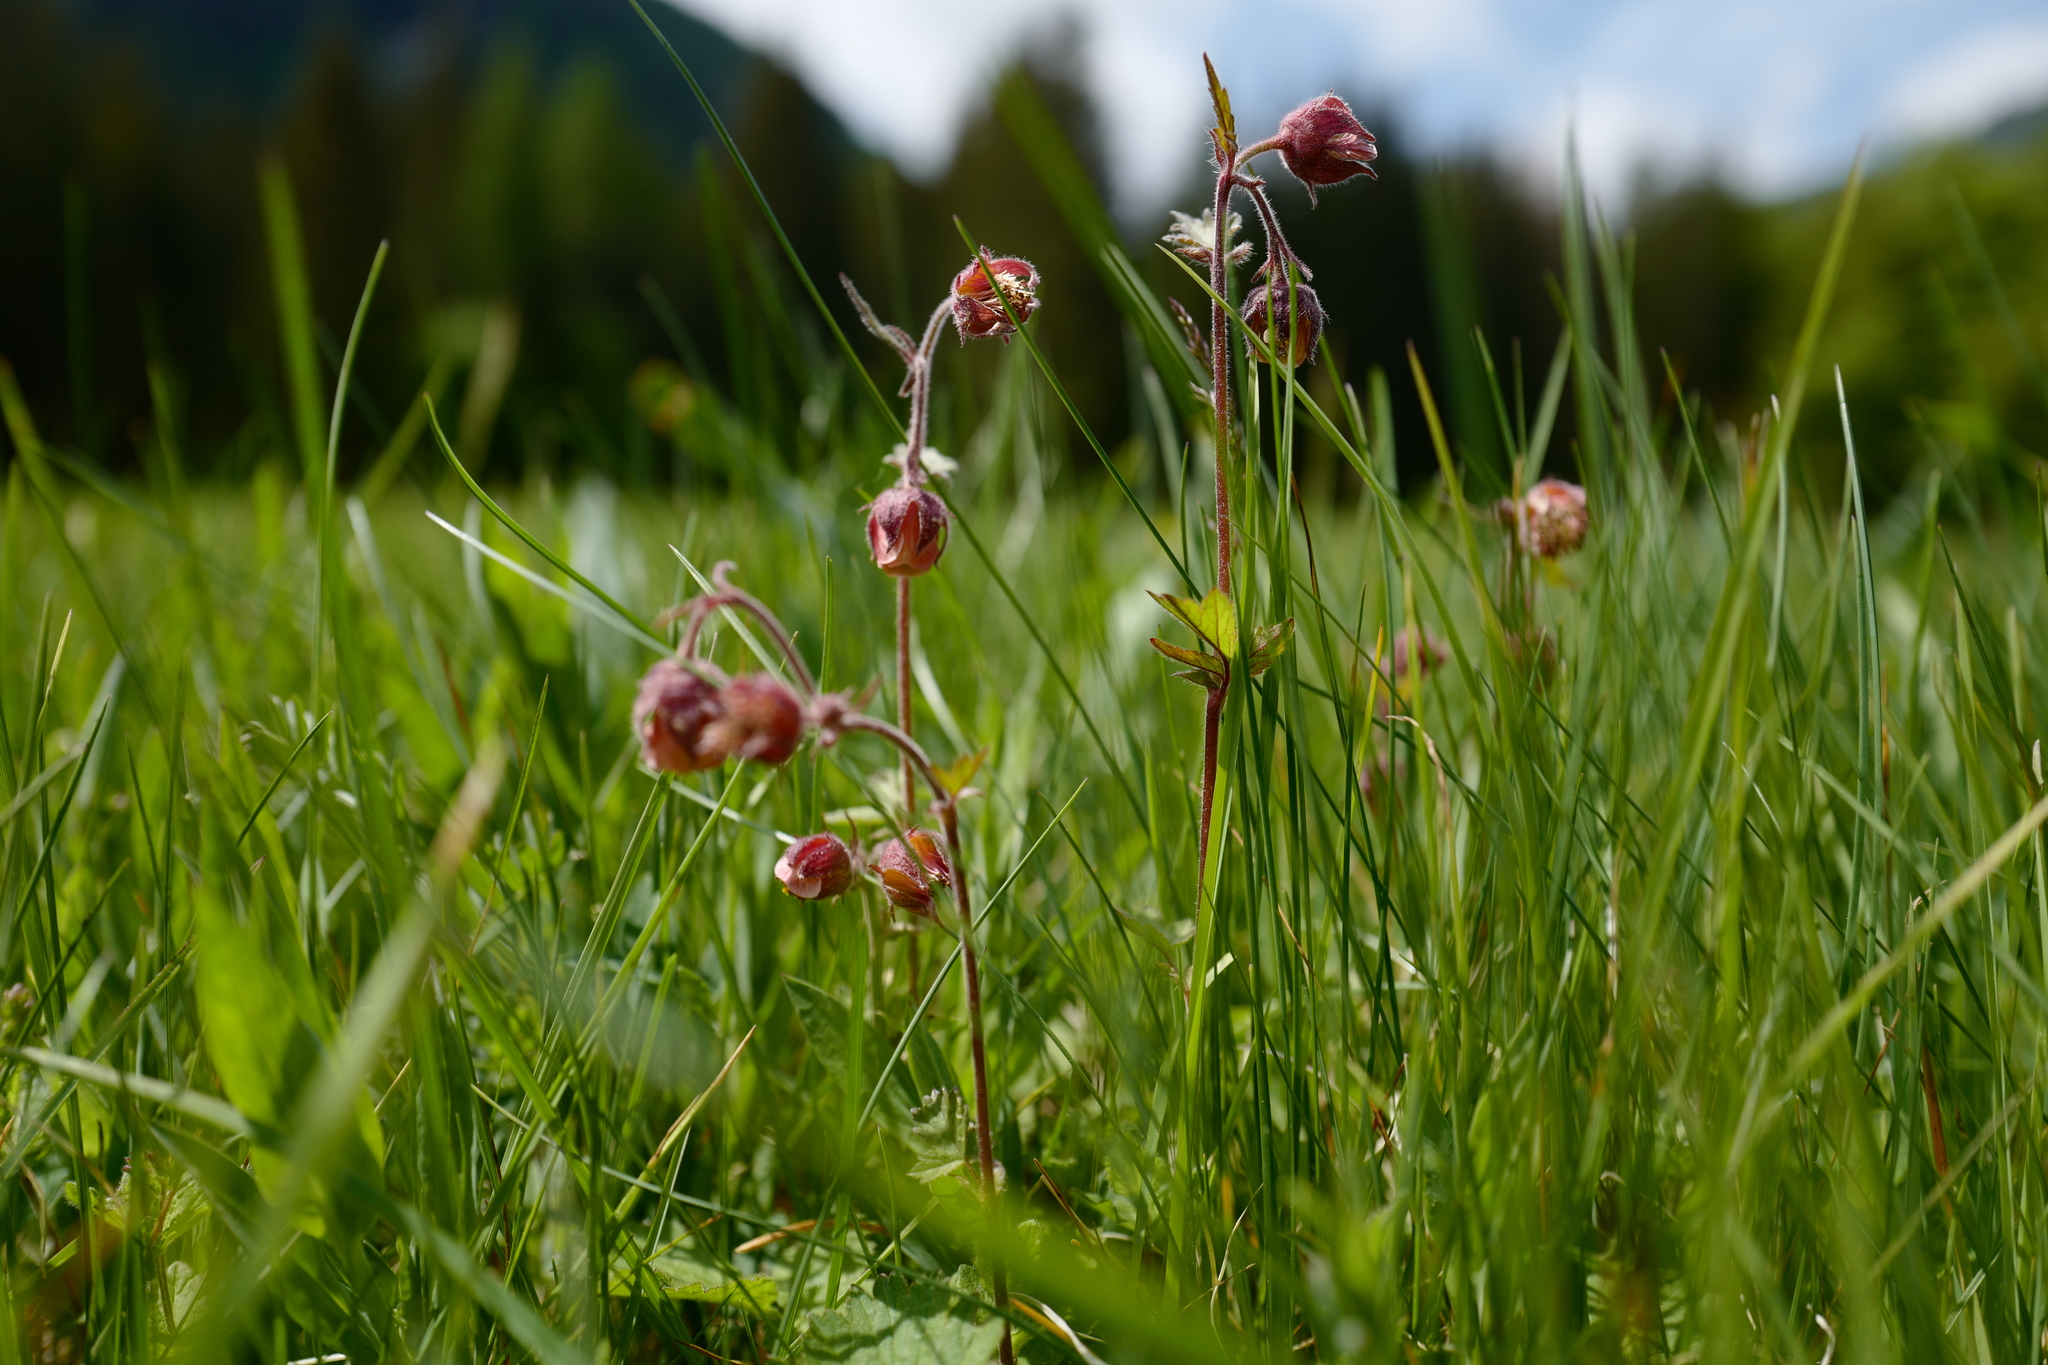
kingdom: Plantae
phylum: Tracheophyta
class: Magnoliopsida
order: Rosales
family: Rosaceae
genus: Geum
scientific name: Geum rivale
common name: Water avens
